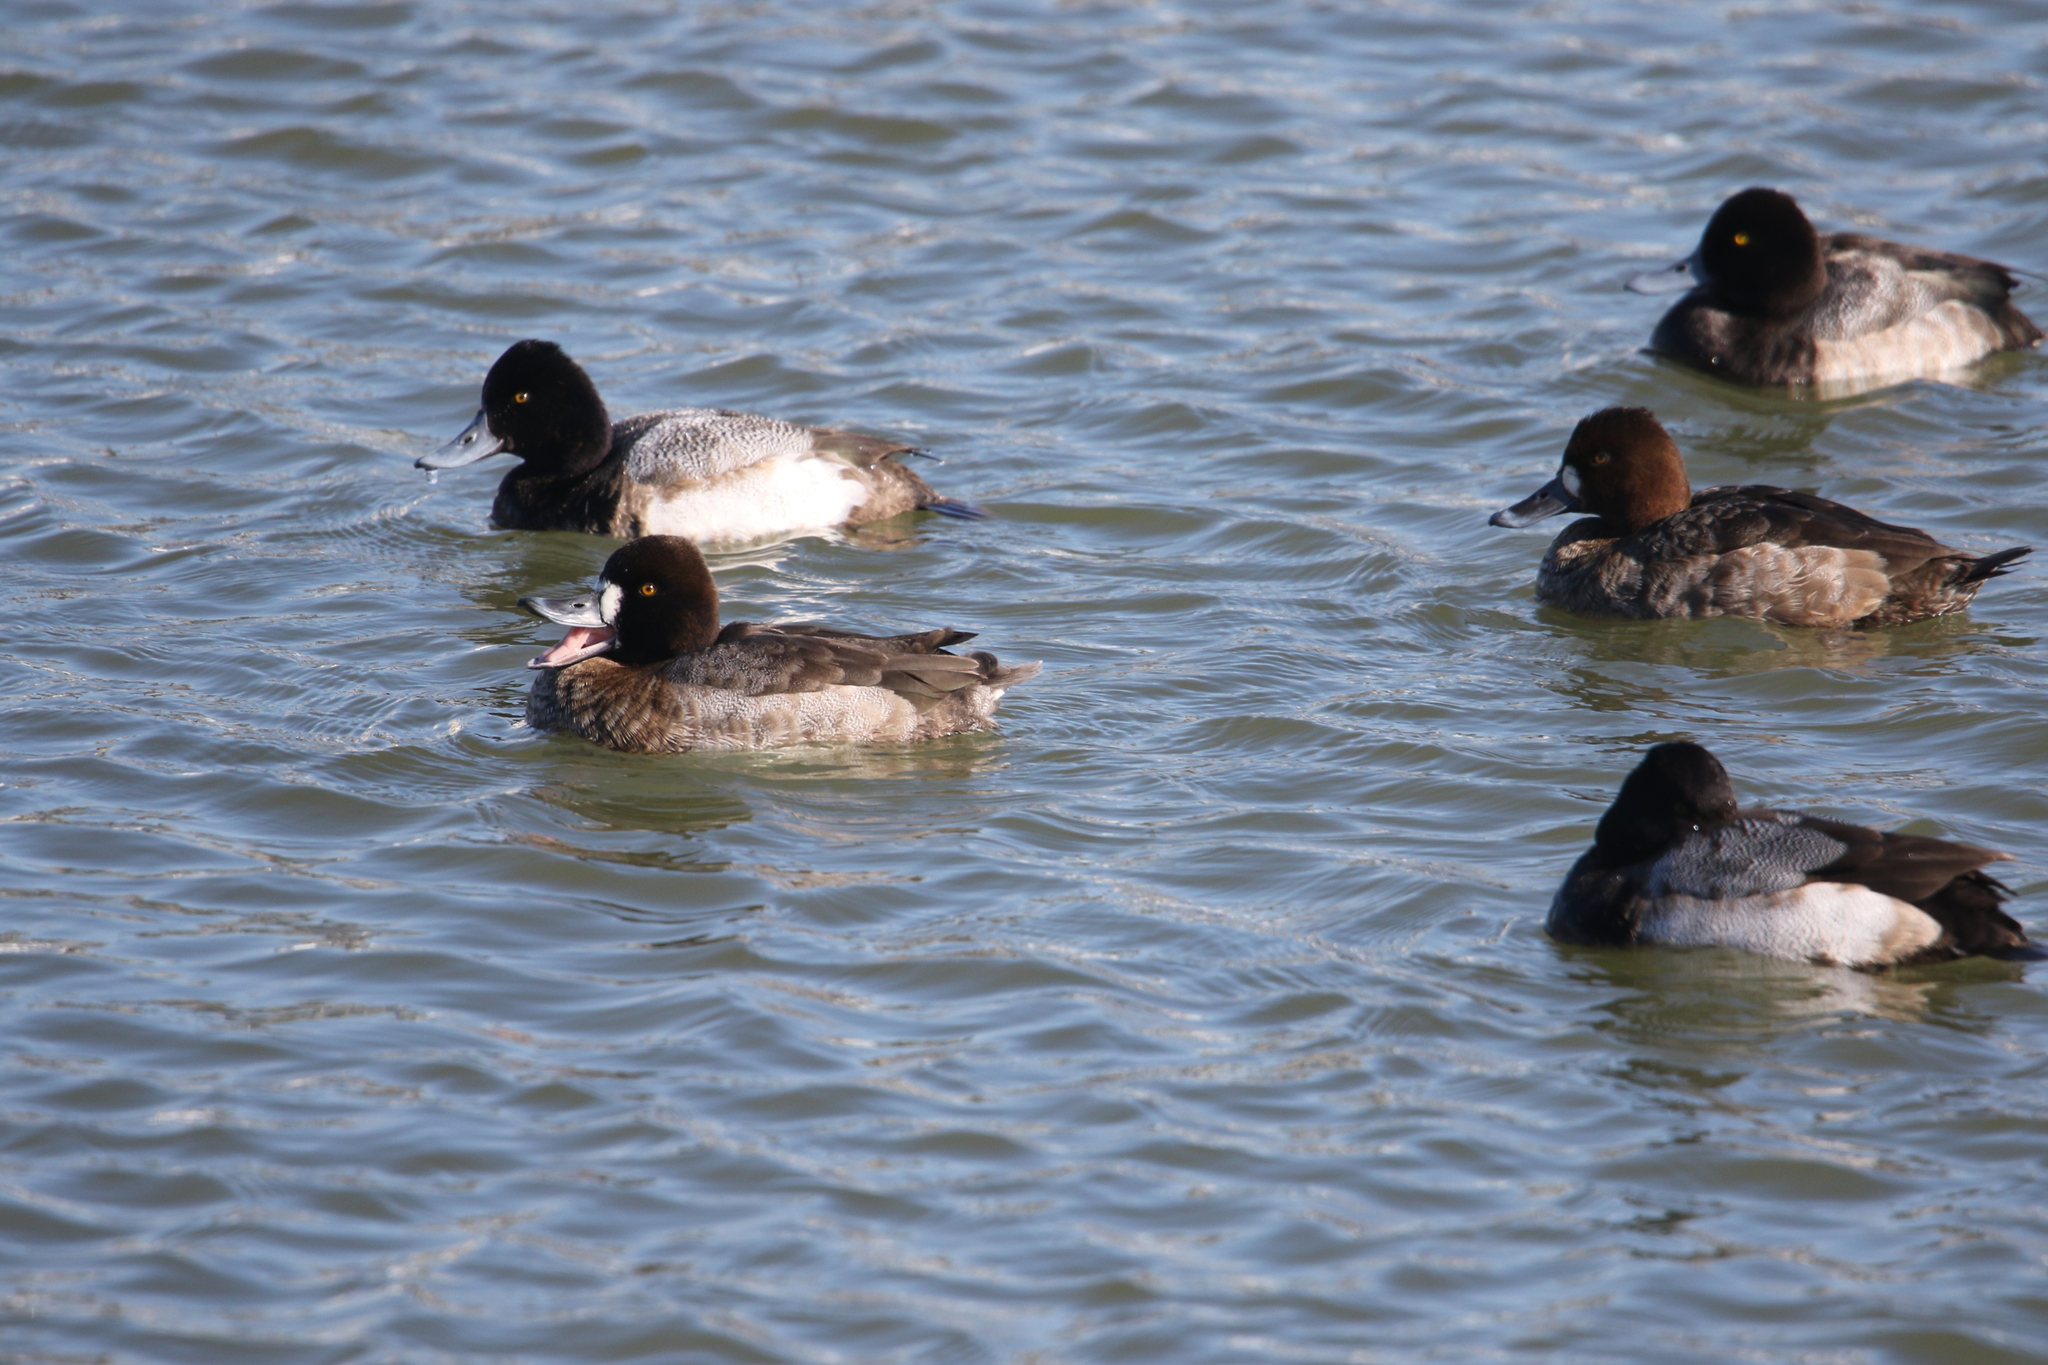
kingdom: Animalia
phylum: Chordata
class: Aves
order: Anseriformes
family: Anatidae
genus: Aythya
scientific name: Aythya affinis
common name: Lesser scaup
